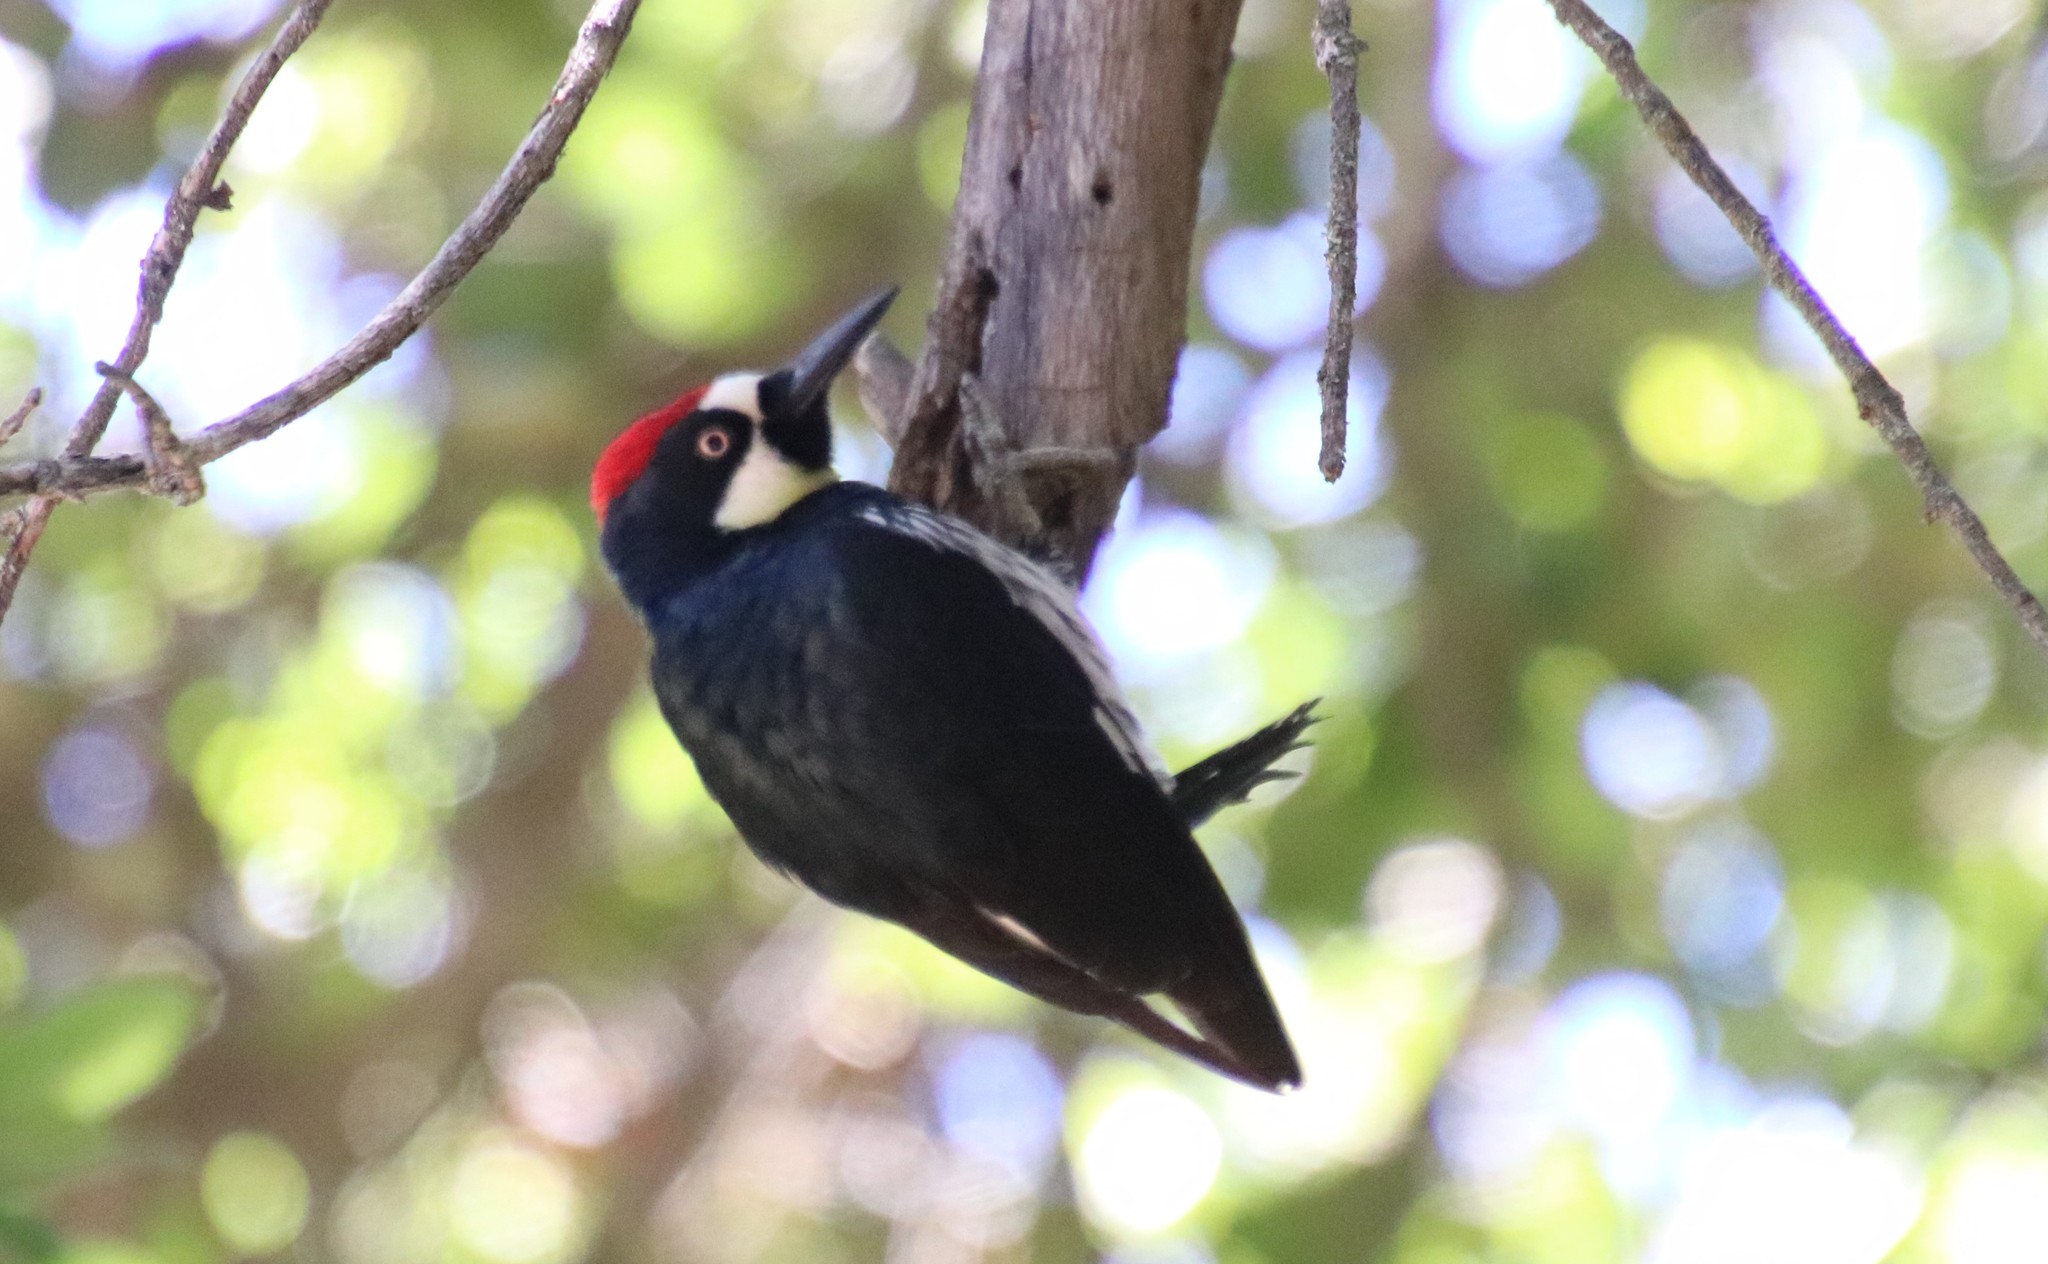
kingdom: Animalia
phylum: Chordata
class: Aves
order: Piciformes
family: Picidae
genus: Melanerpes
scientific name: Melanerpes formicivorus
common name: Acorn woodpecker
